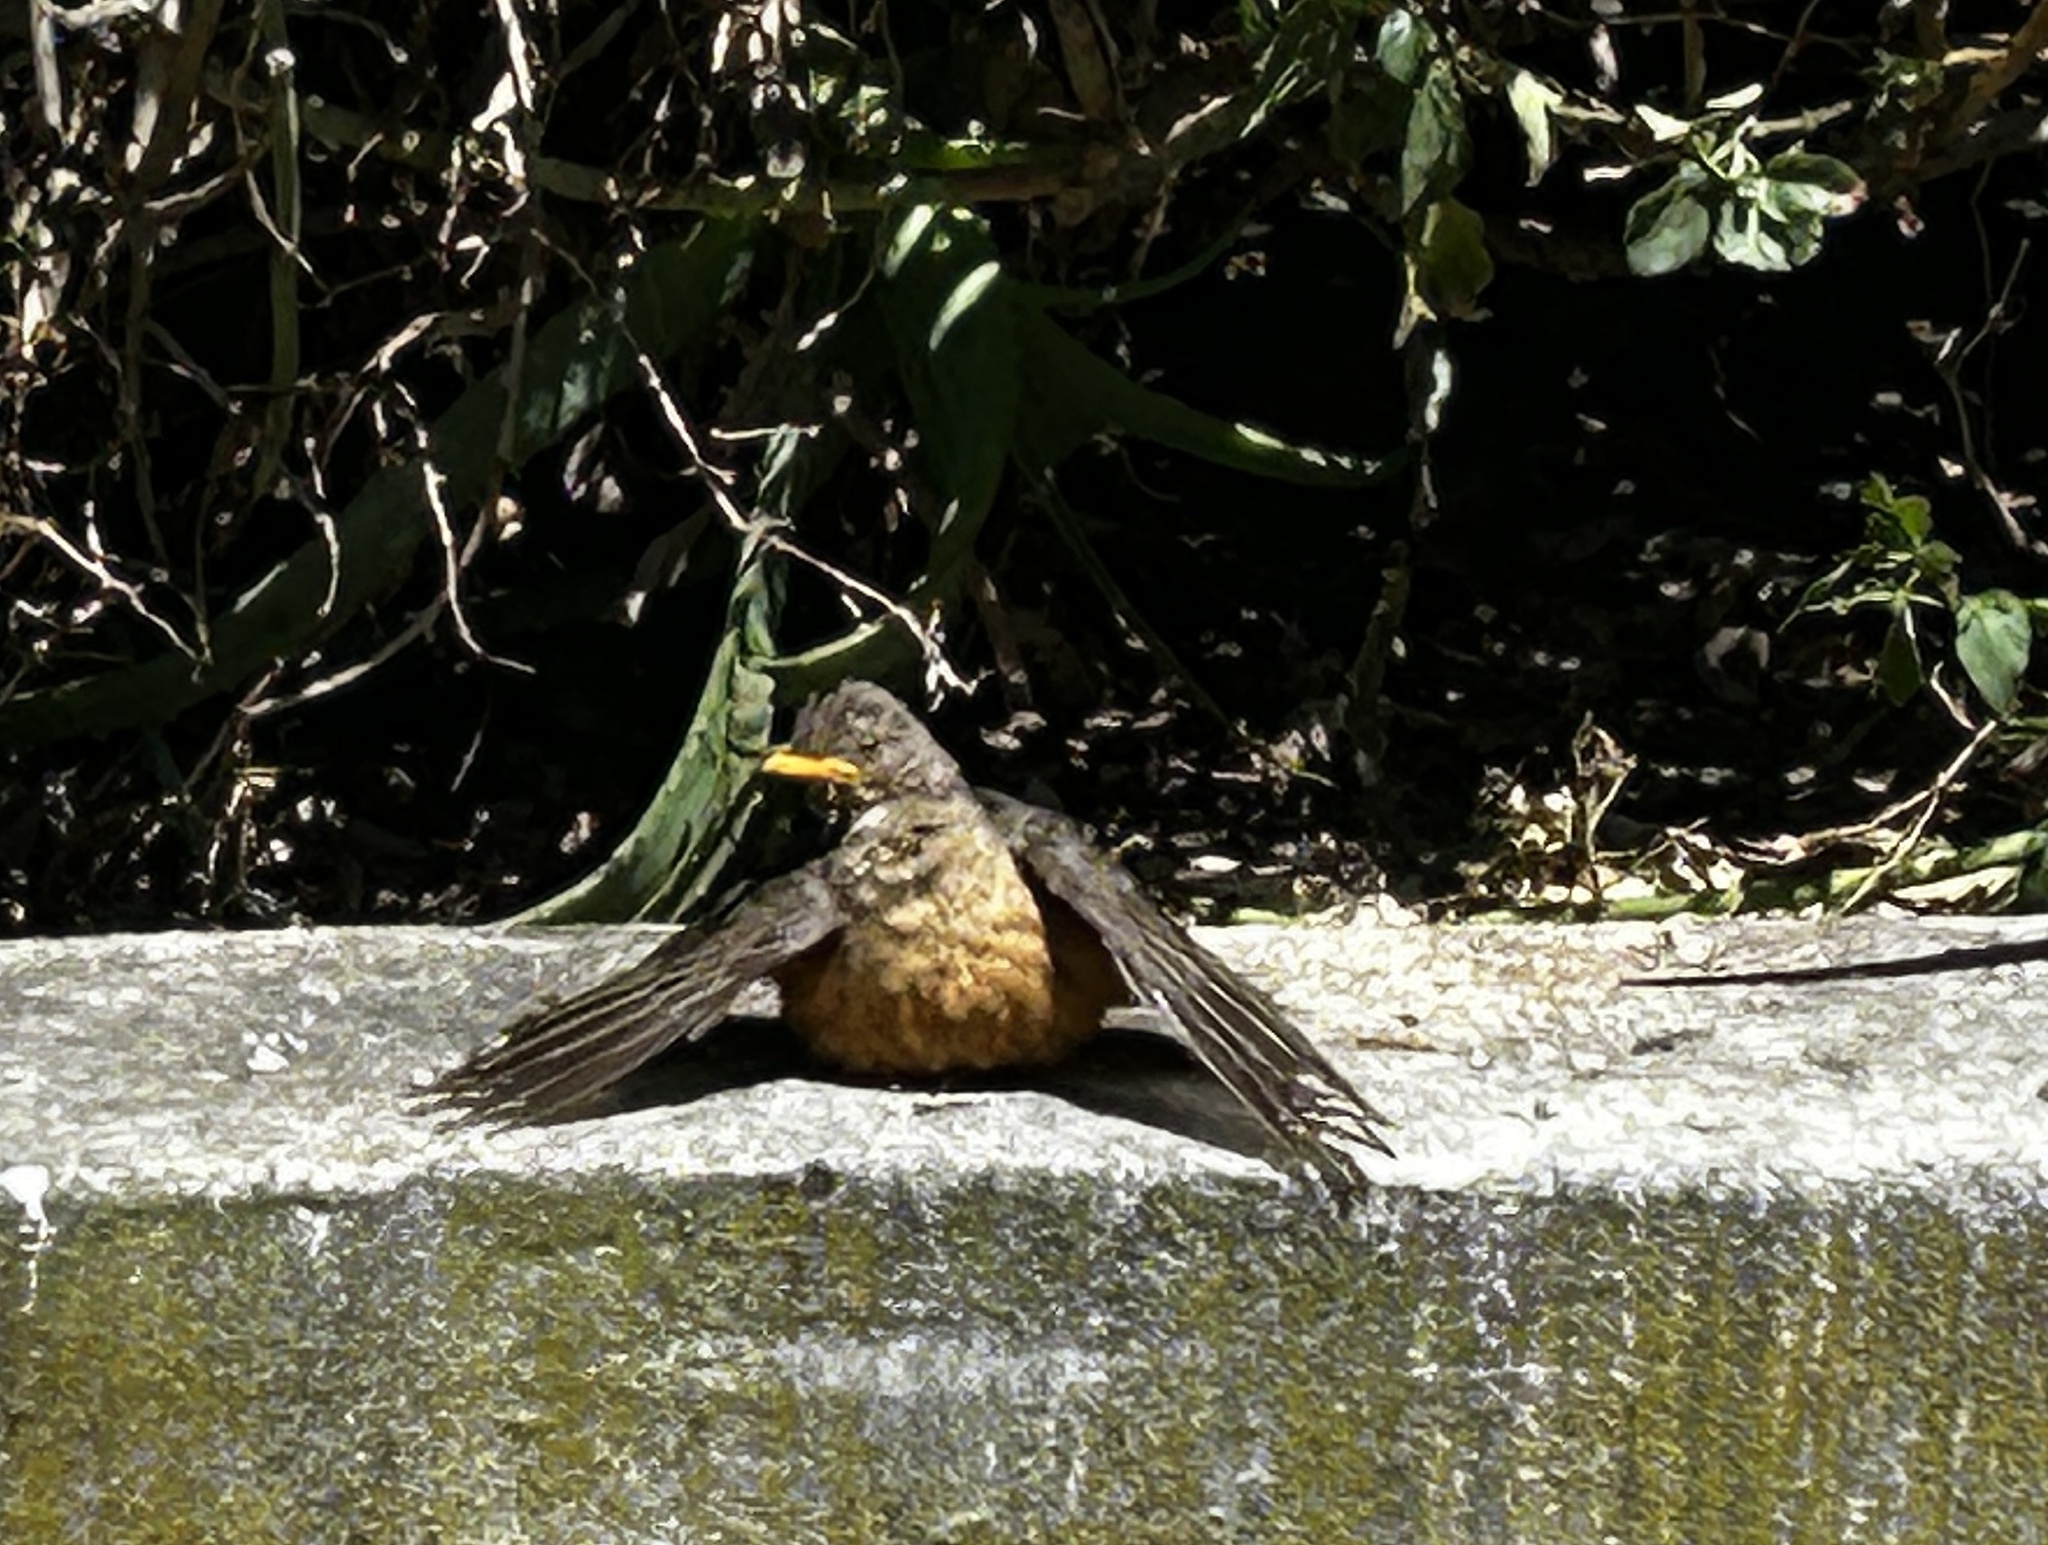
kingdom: Animalia
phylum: Chordata
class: Aves
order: Passeriformes
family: Turdidae
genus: Turdus
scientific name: Turdus olivaceus
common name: Olive thrush
